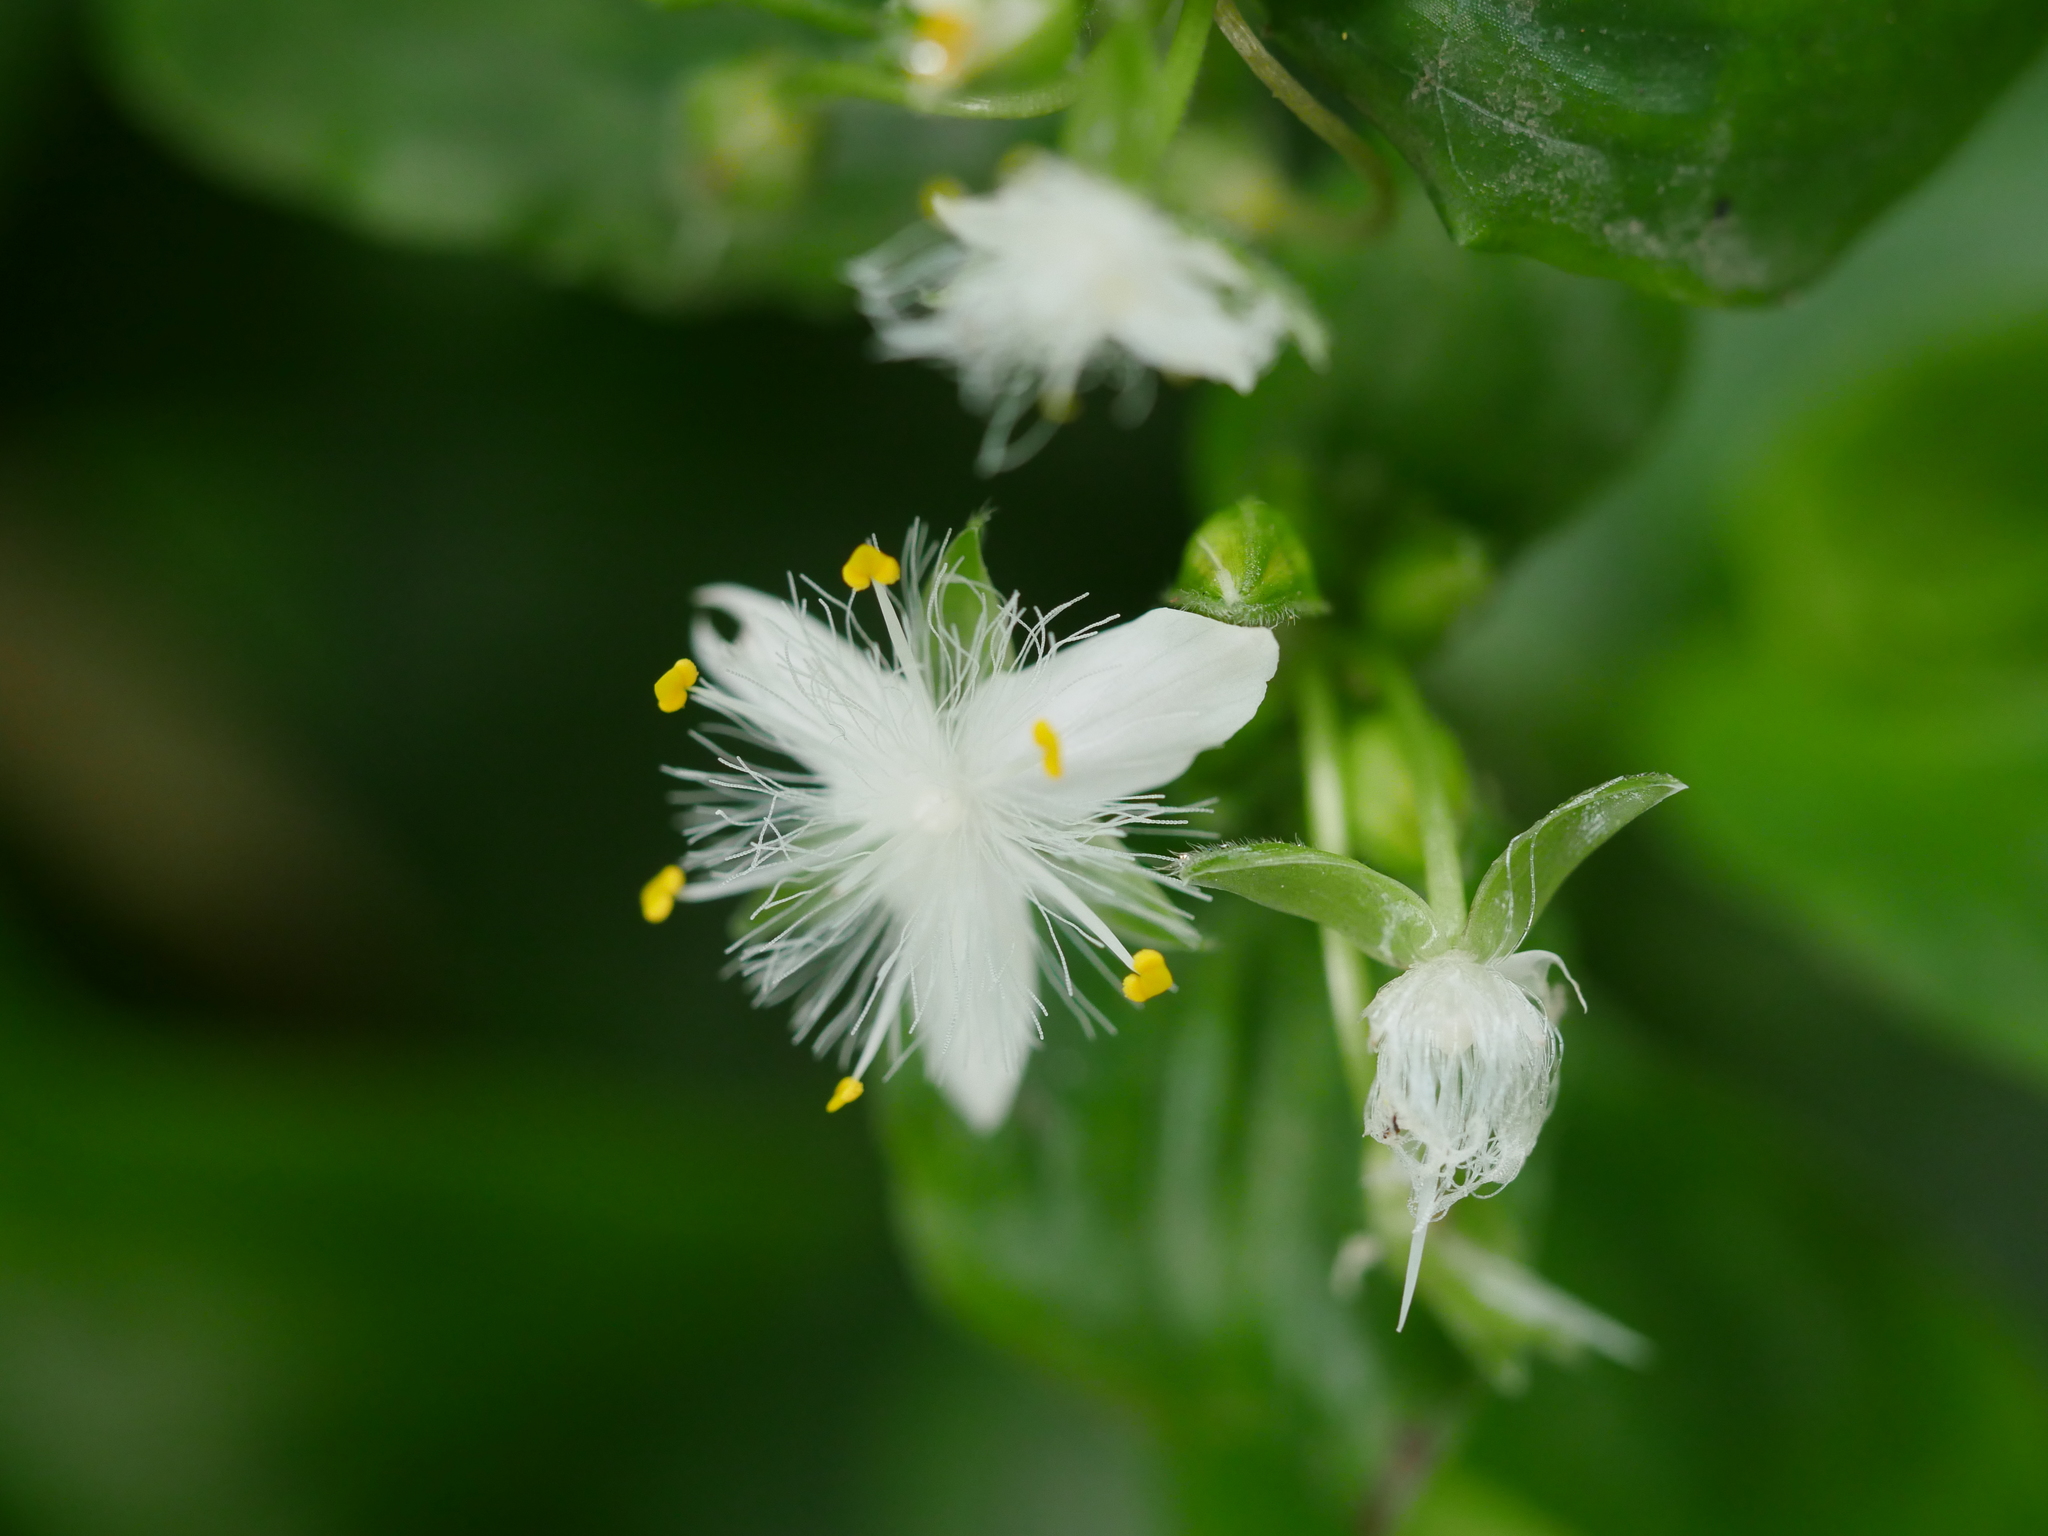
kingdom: Plantae
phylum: Tracheophyta
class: Liliopsida
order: Commelinales
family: Commelinaceae
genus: Tradescantia
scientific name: Tradescantia fluminensis
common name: Wandering-jew
